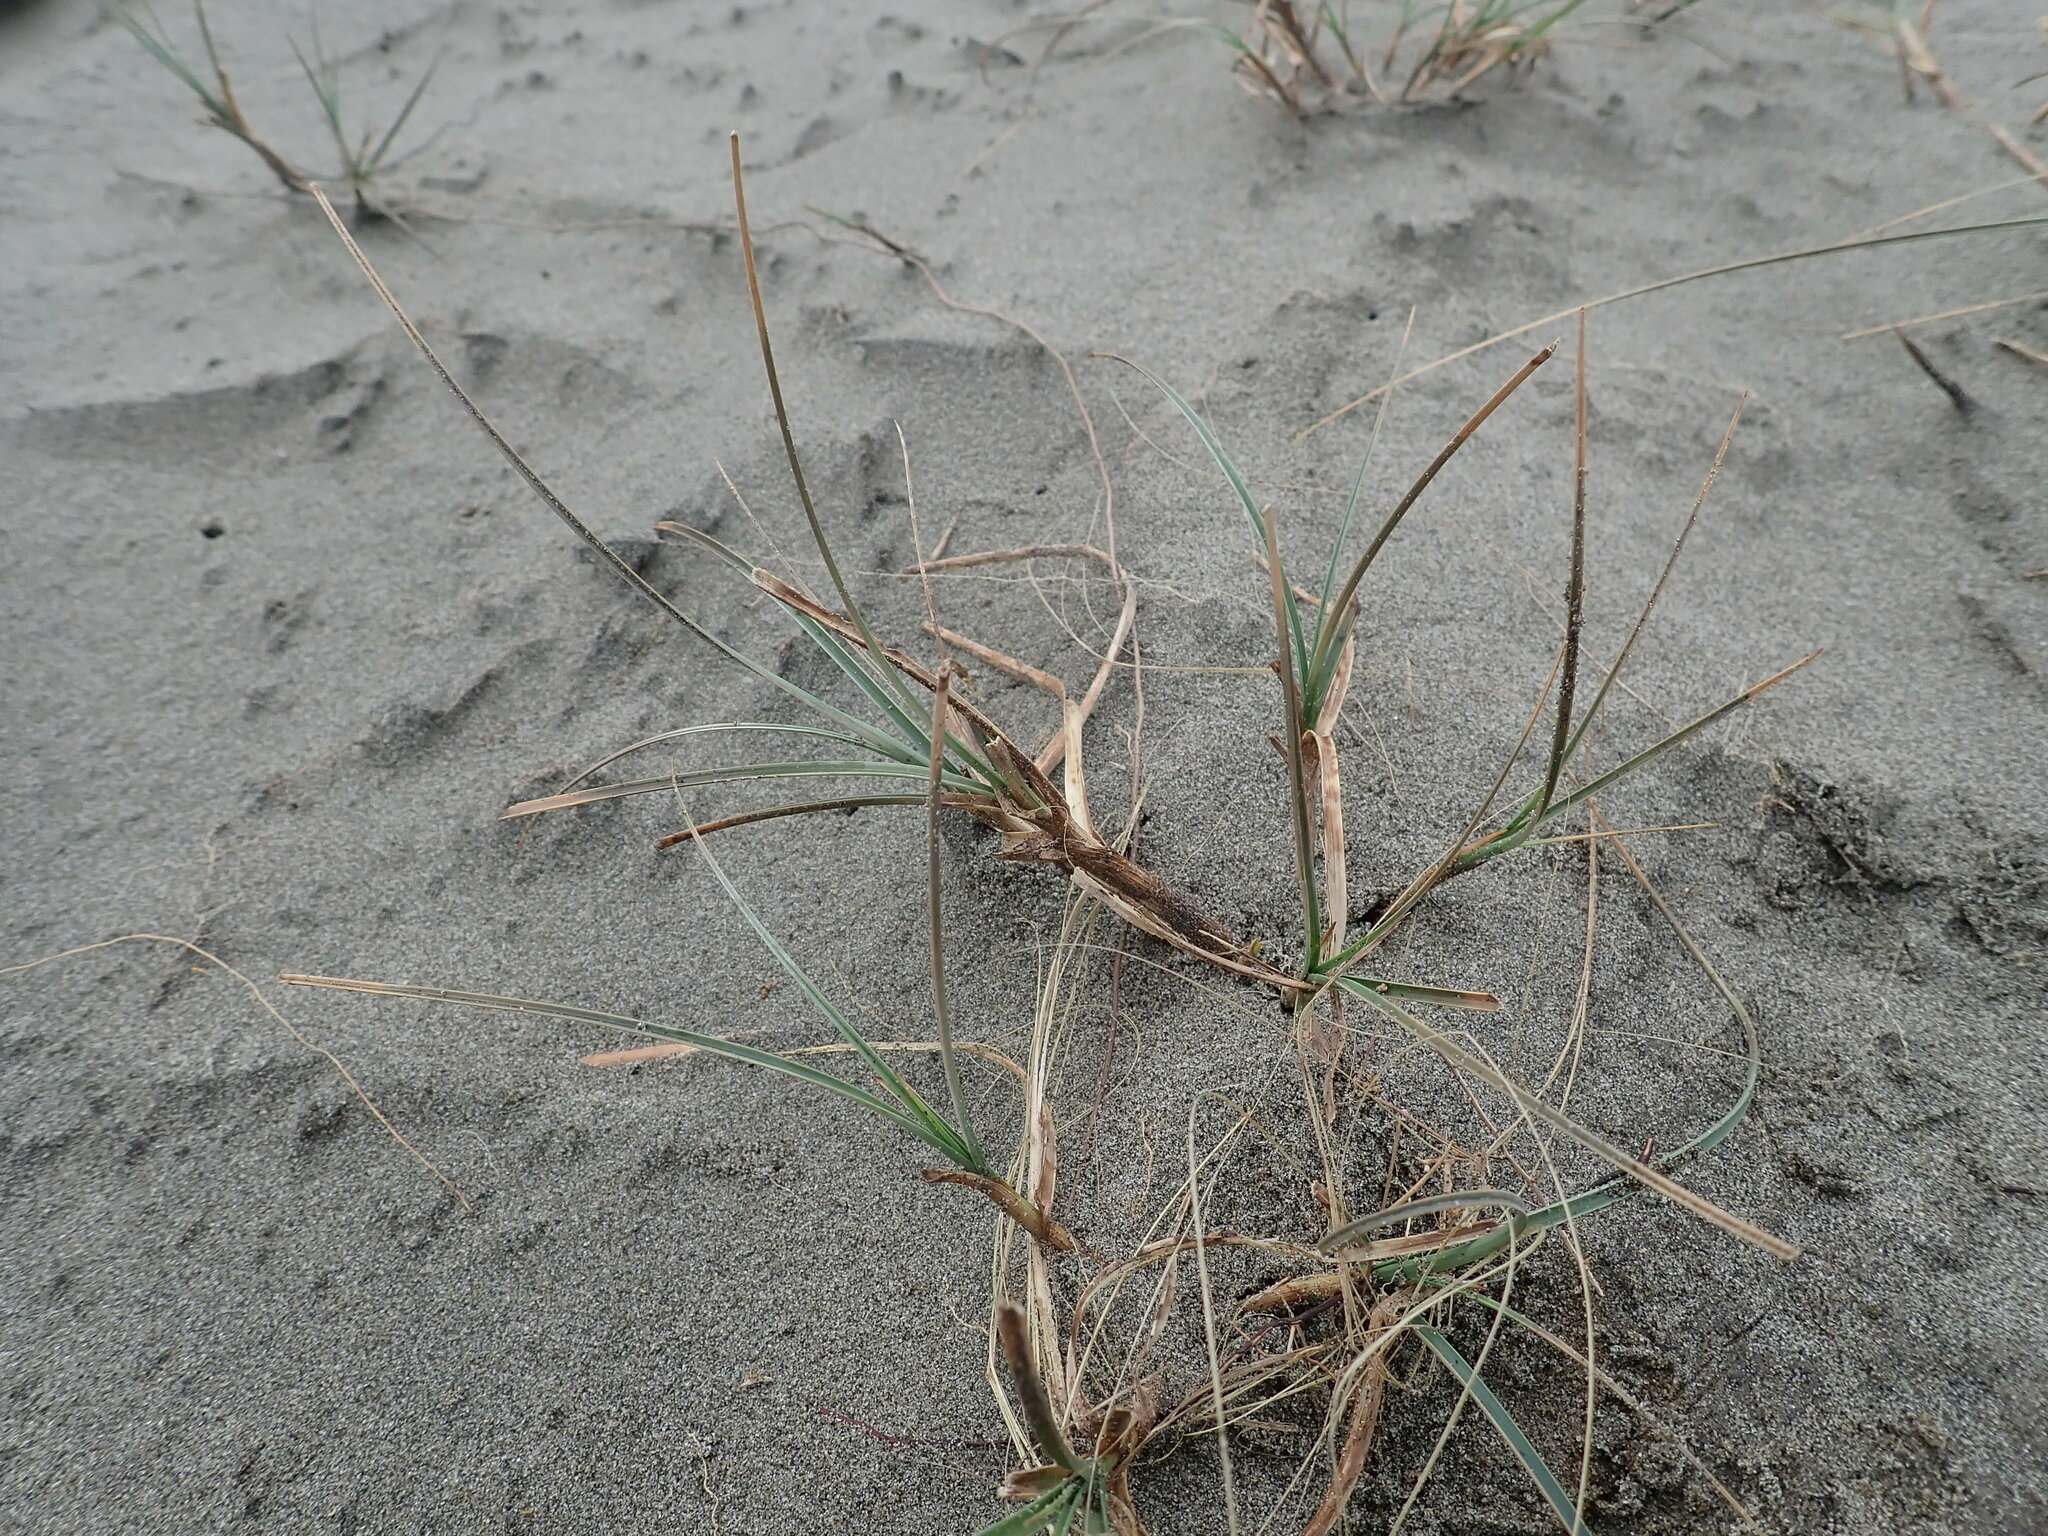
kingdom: Plantae
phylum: Tracheophyta
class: Liliopsida
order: Poales
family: Cyperaceae
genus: Carex
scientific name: Carex pumila
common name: Dwarf sedge
